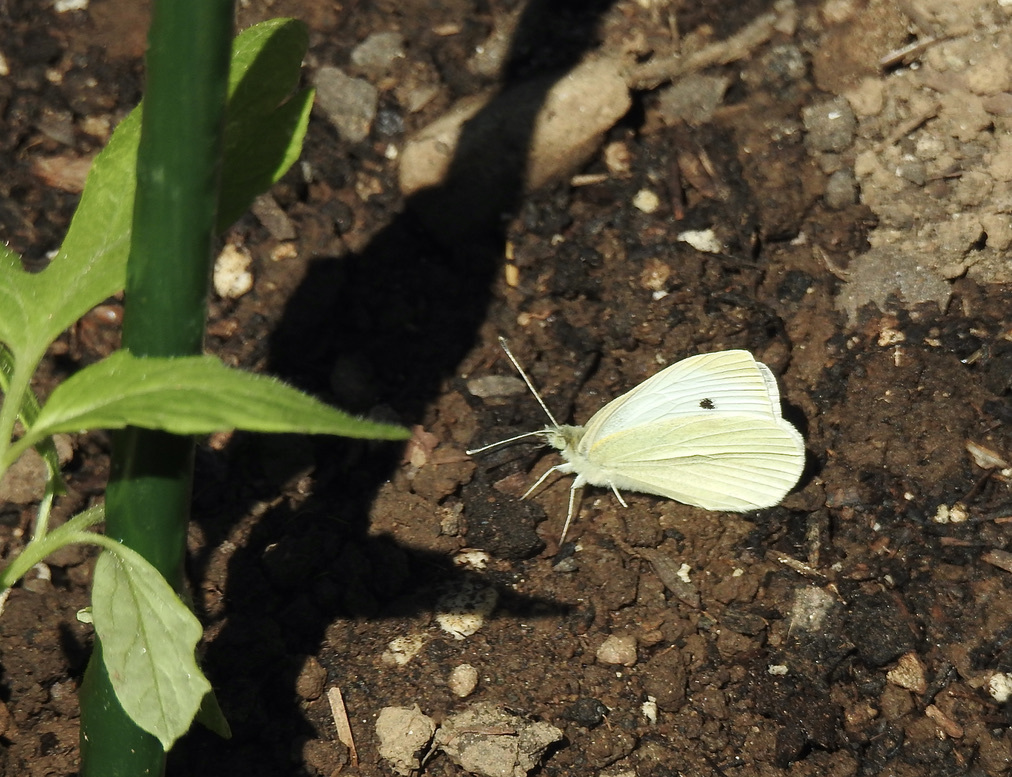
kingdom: Animalia
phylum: Arthropoda
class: Insecta
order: Lepidoptera
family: Pieridae
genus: Pieris
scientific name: Pieris rapae
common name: Small white
